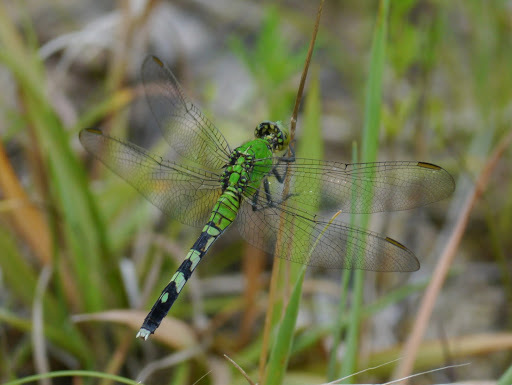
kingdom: Animalia
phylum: Arthropoda
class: Insecta
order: Odonata
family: Libellulidae
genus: Erythemis
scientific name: Erythemis simplicicollis
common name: Eastern pondhawk
